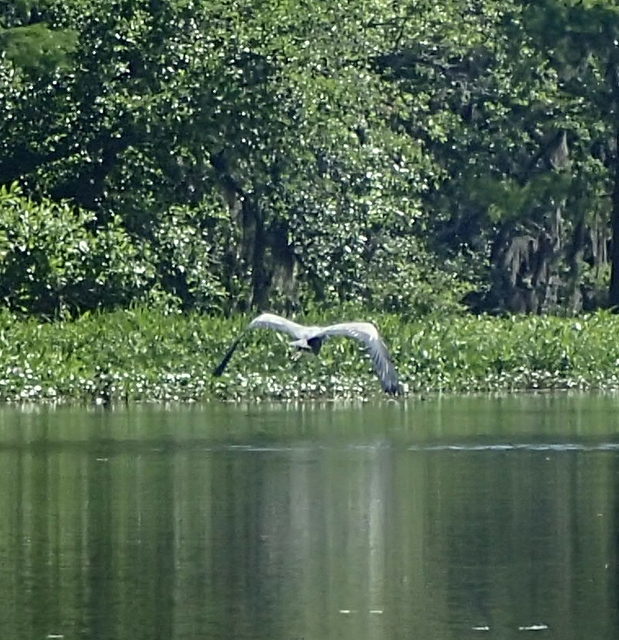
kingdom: Animalia
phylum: Chordata
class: Aves
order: Pelecaniformes
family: Ardeidae
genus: Ardea
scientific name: Ardea herodias
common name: Great blue heron
